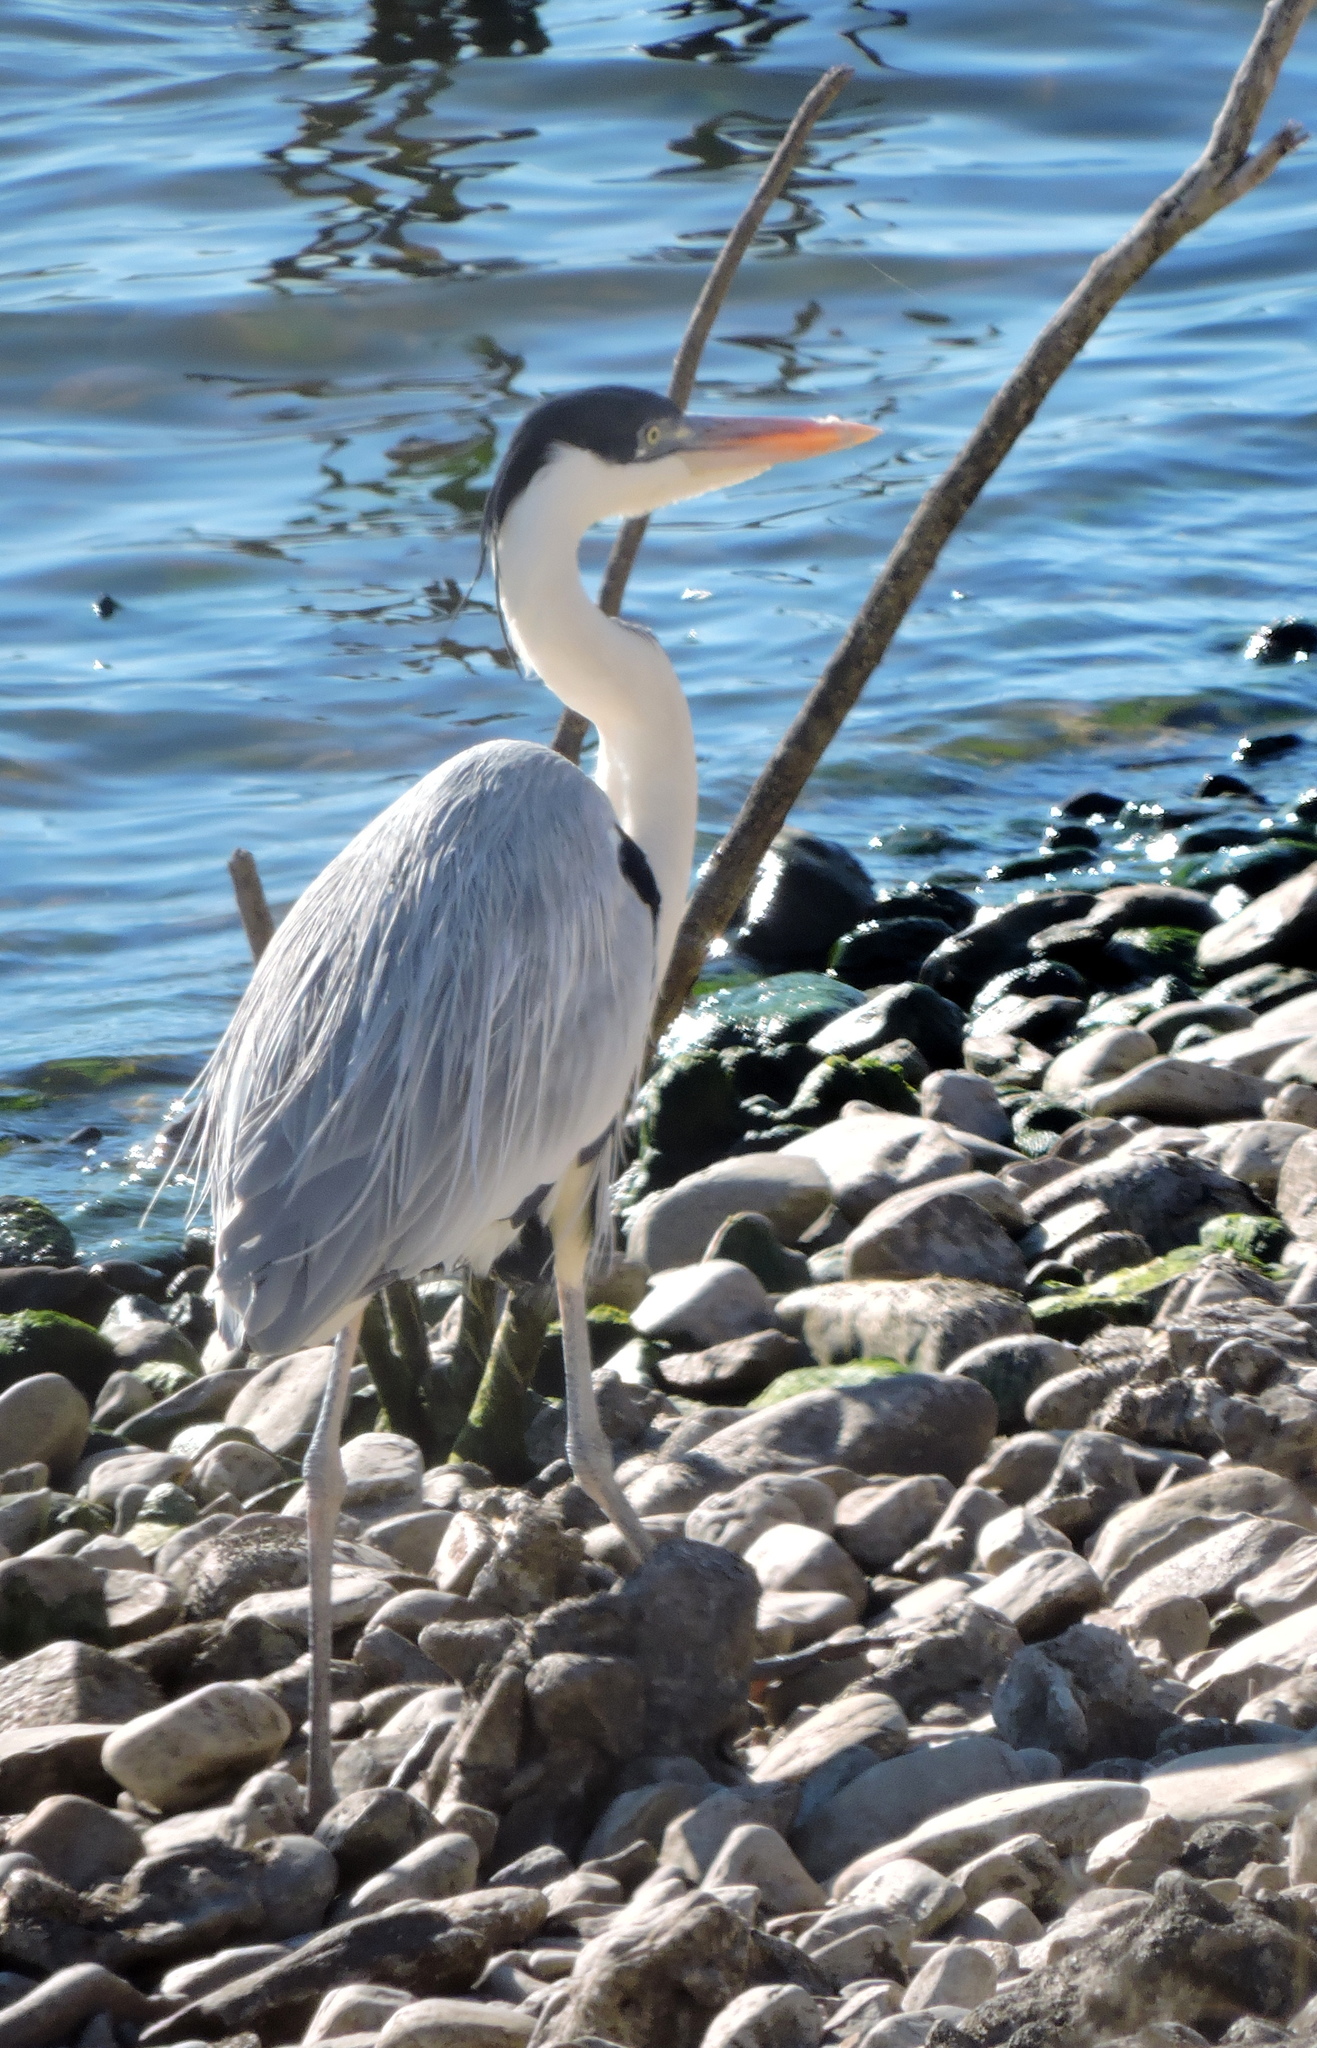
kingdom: Animalia
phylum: Chordata
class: Aves
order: Pelecaniformes
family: Ardeidae
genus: Ardea
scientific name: Ardea cocoi
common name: Cocoi heron
